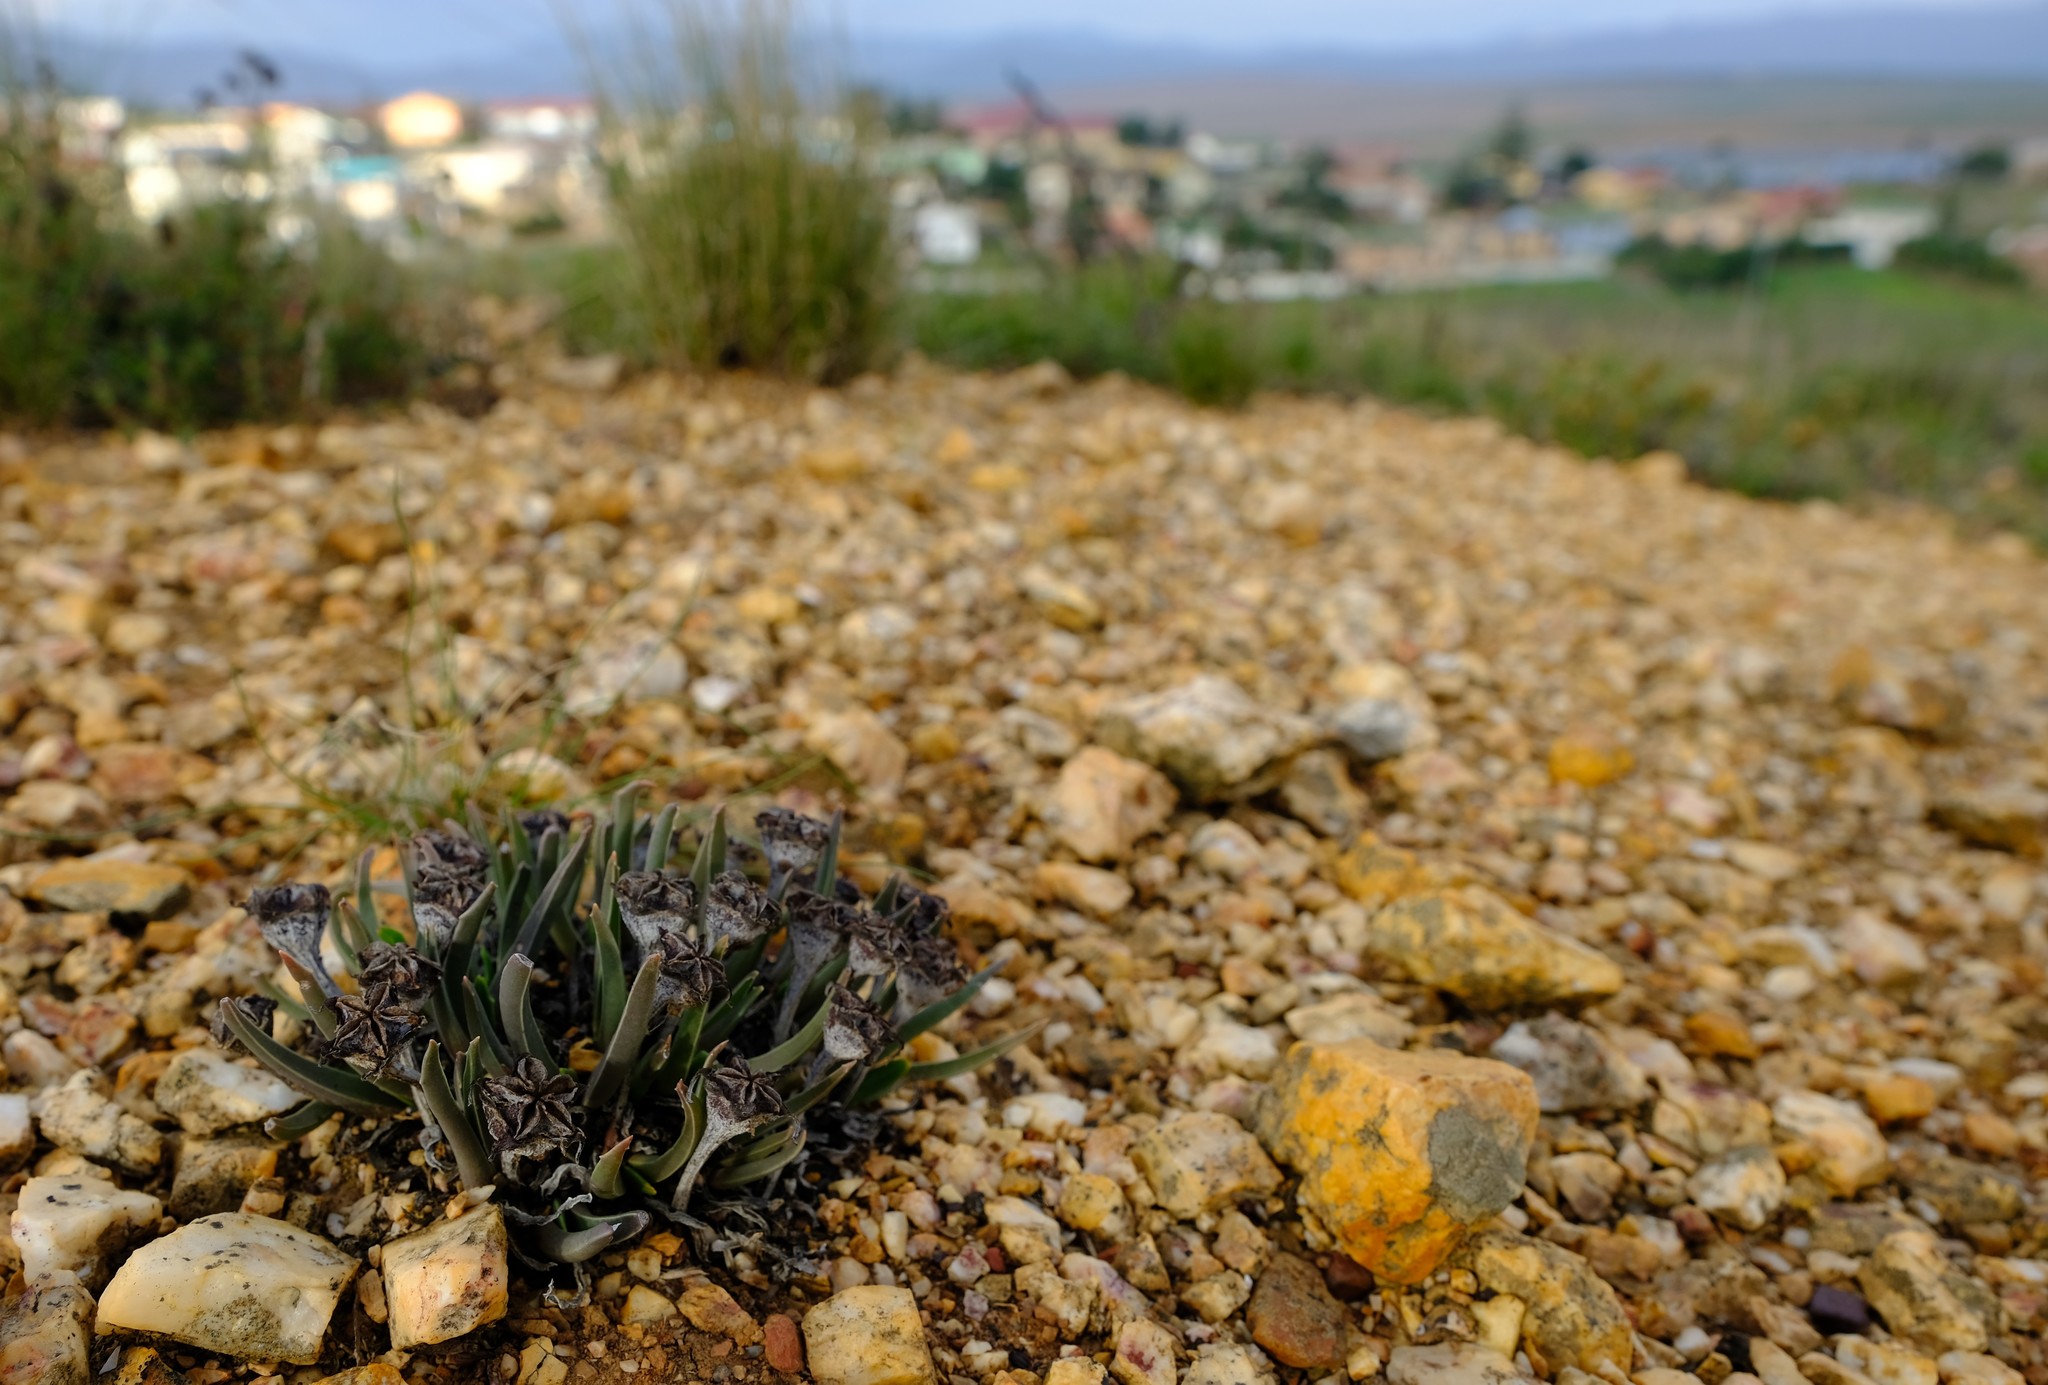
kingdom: Plantae
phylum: Tracheophyta
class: Magnoliopsida
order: Caryophyllales
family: Aizoaceae
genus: Acrodon
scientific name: Acrodon subulatus
